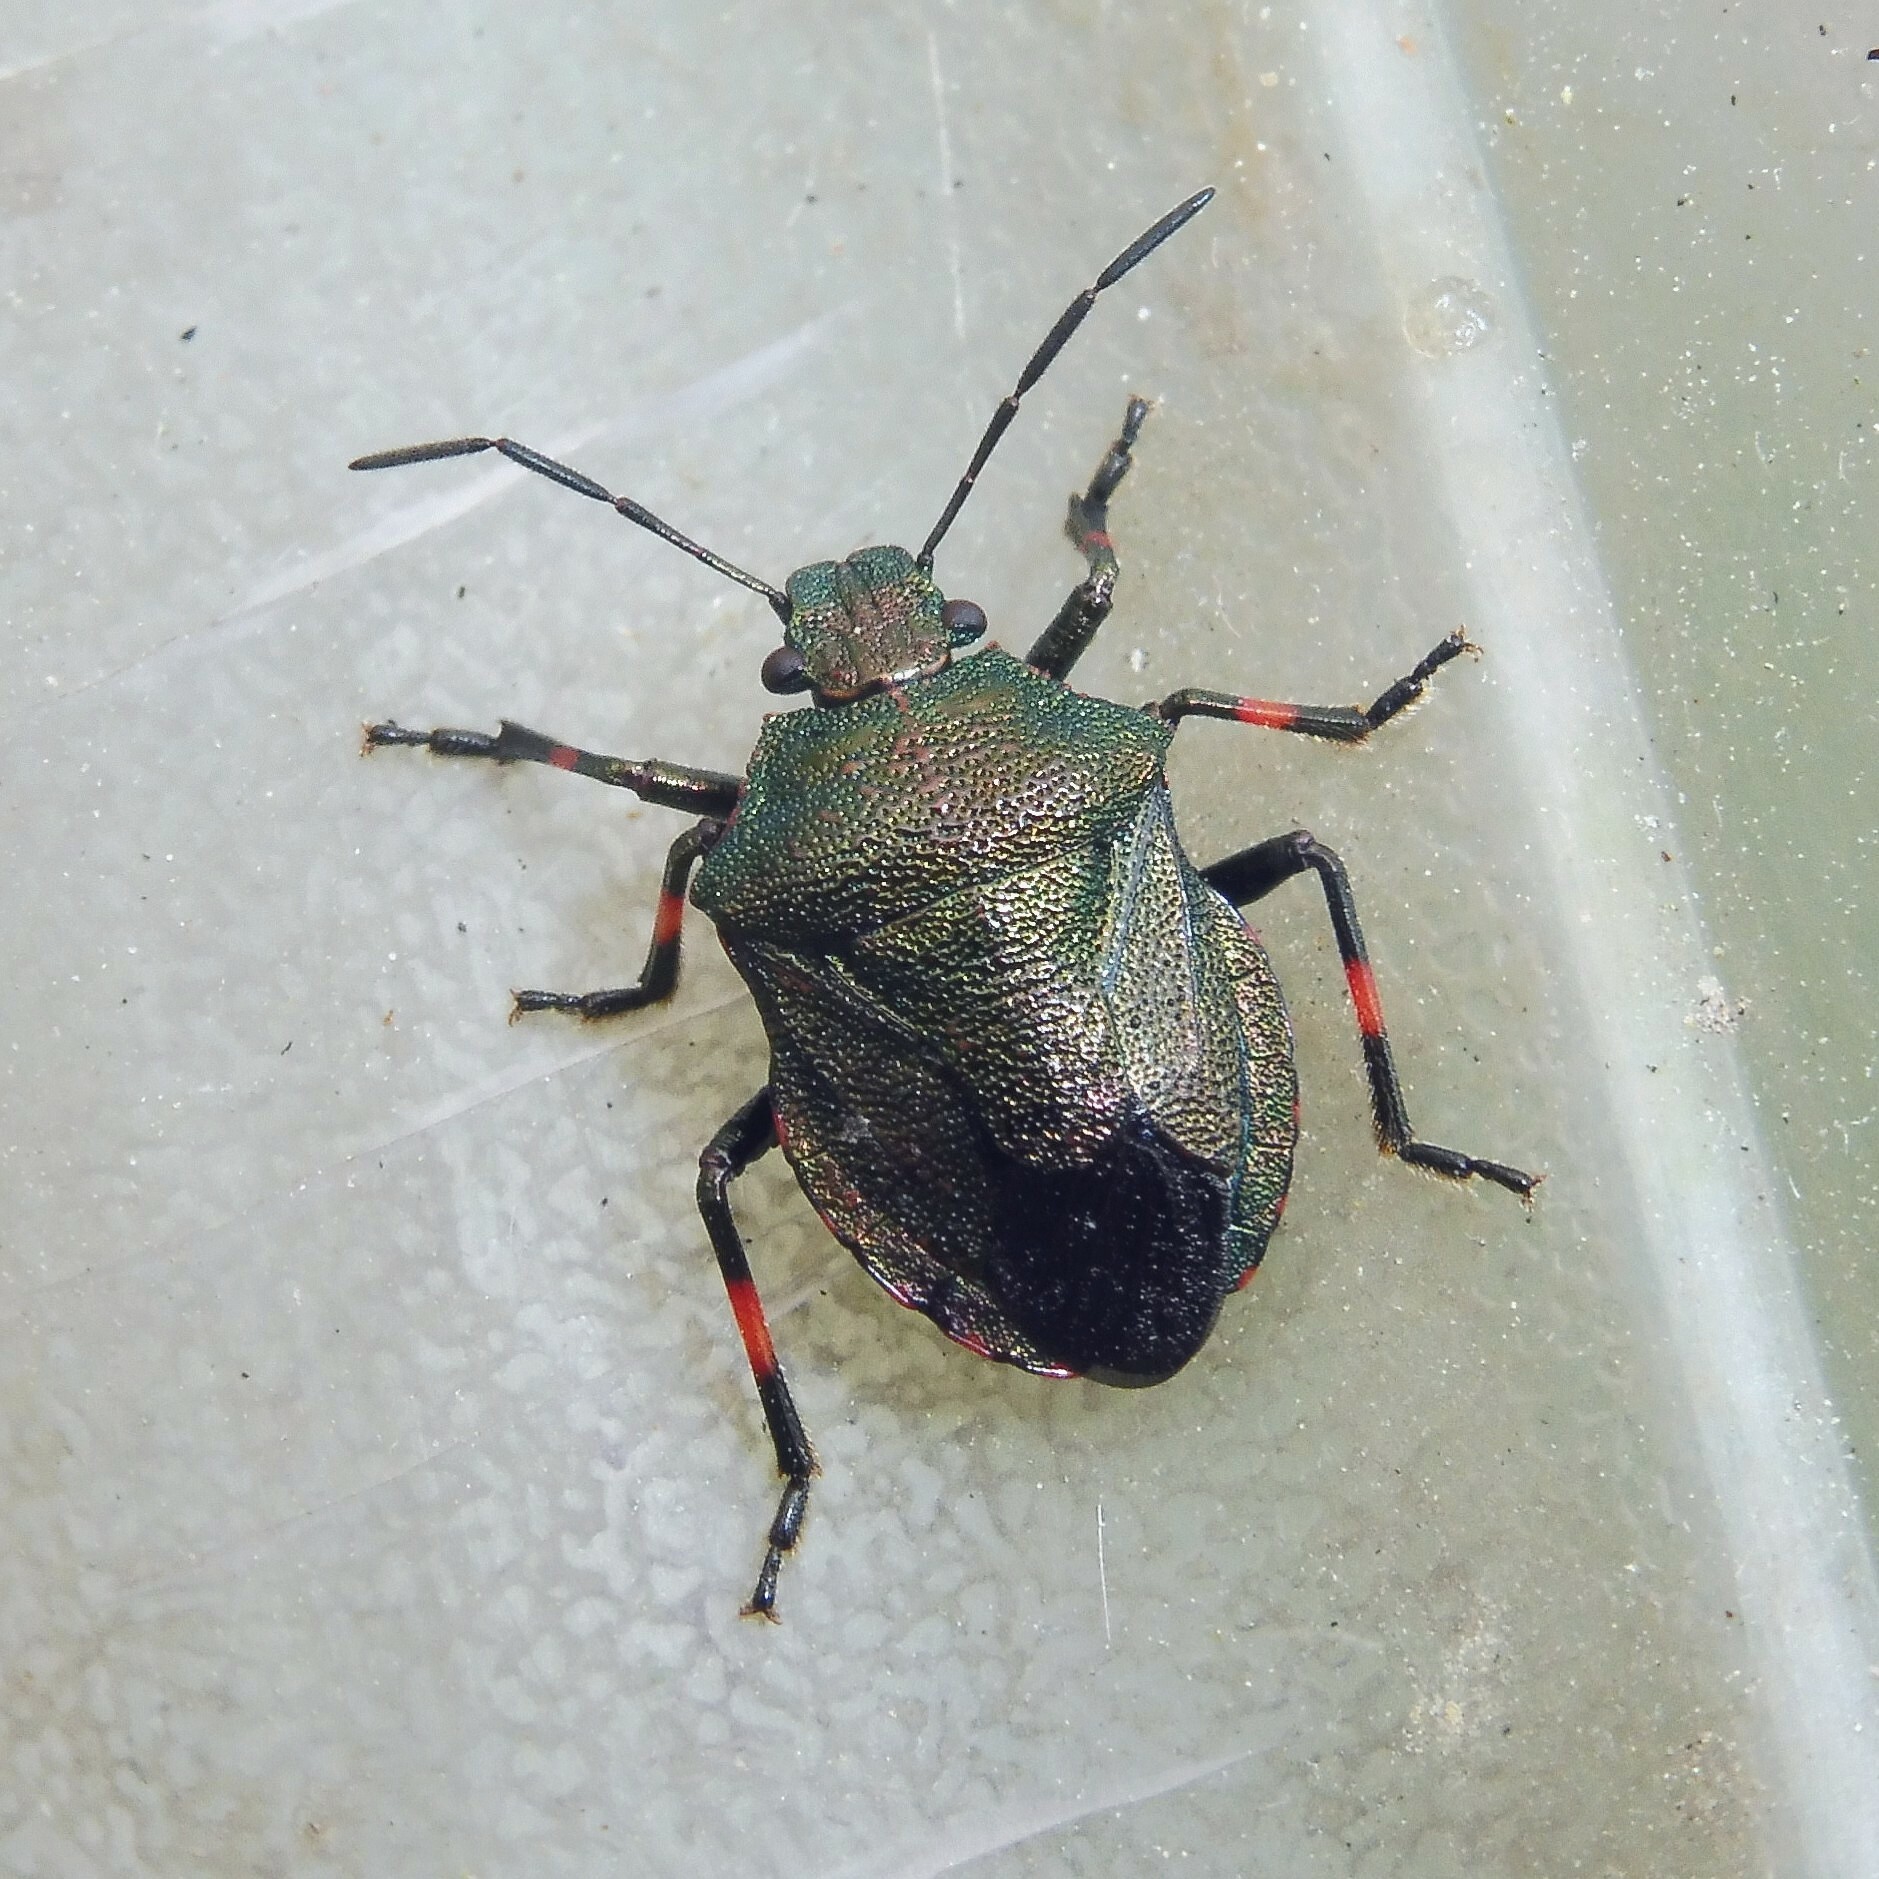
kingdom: Animalia
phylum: Arthropoda
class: Insecta
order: Hemiptera
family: Pentatomidae
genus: Rhacognathus
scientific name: Rhacognathus punctatus
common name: Heather bug
